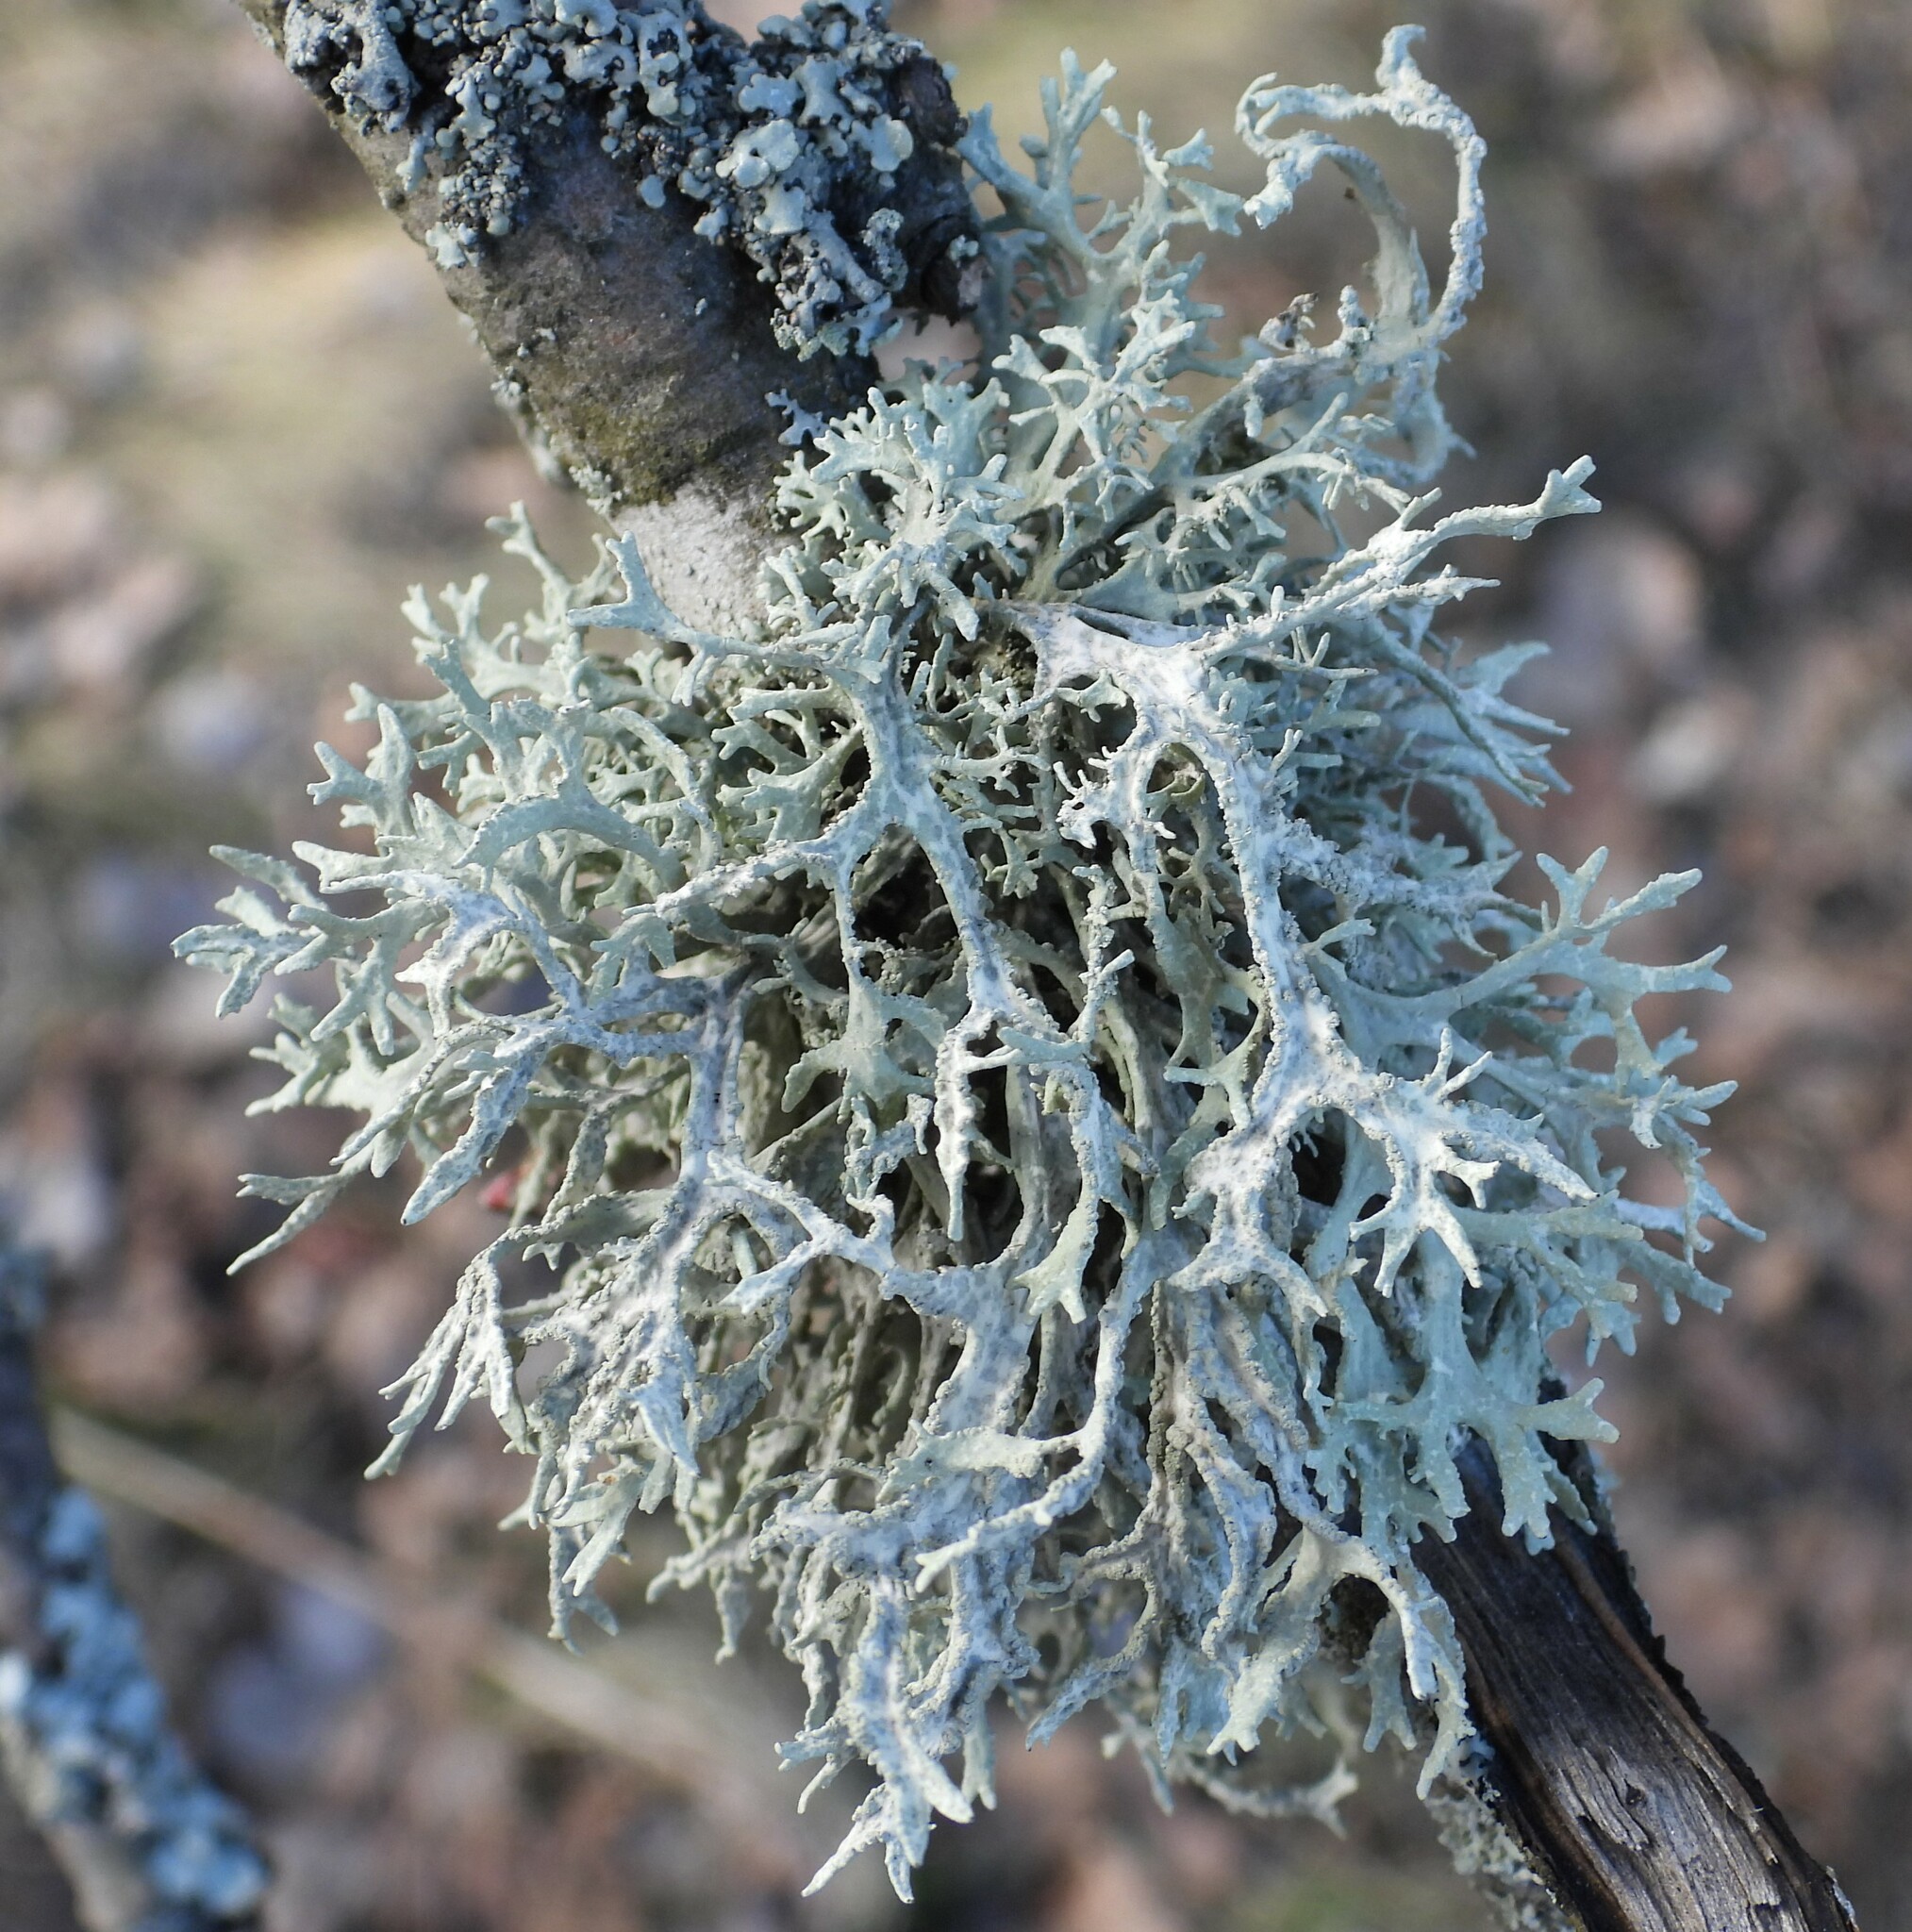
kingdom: Fungi
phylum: Ascomycota
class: Lecanoromycetes
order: Lecanorales
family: Parmeliaceae
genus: Evernia
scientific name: Evernia prunastri
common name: Oak moss
